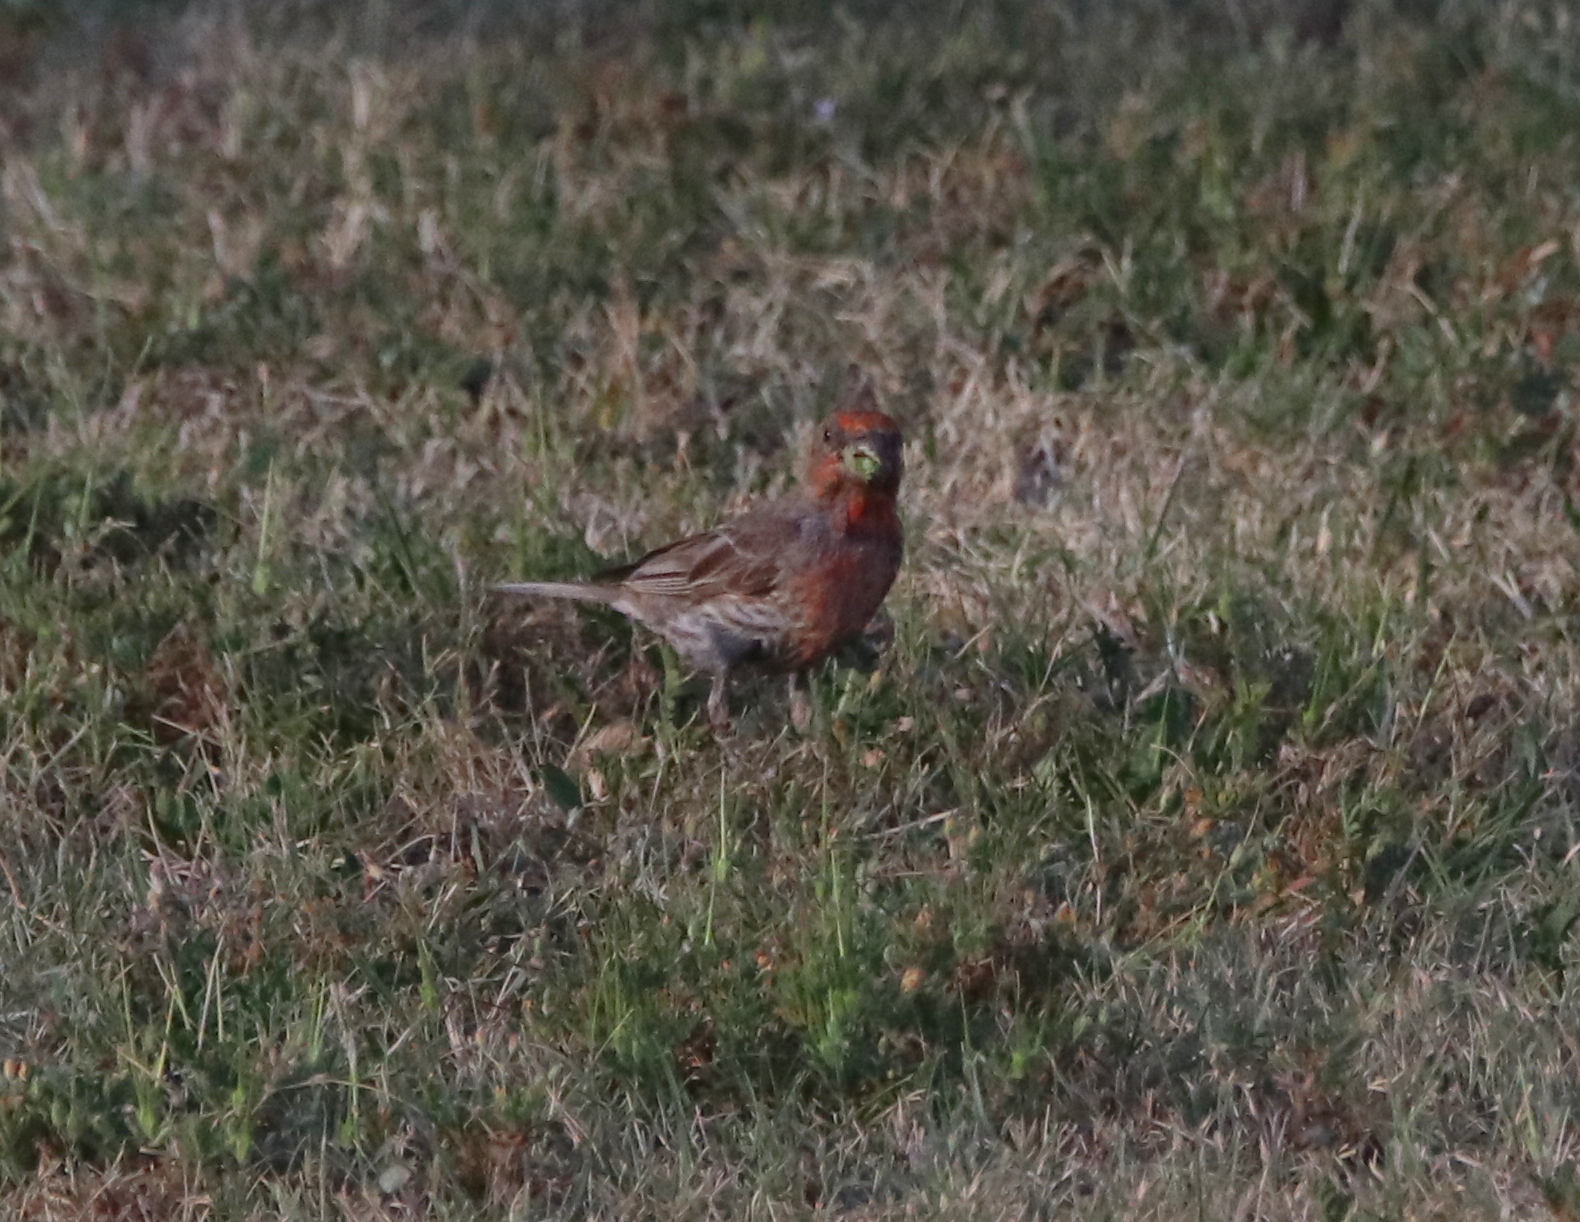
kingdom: Animalia
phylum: Chordata
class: Aves
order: Passeriformes
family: Fringillidae
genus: Haemorhous
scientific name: Haemorhous mexicanus
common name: House finch
